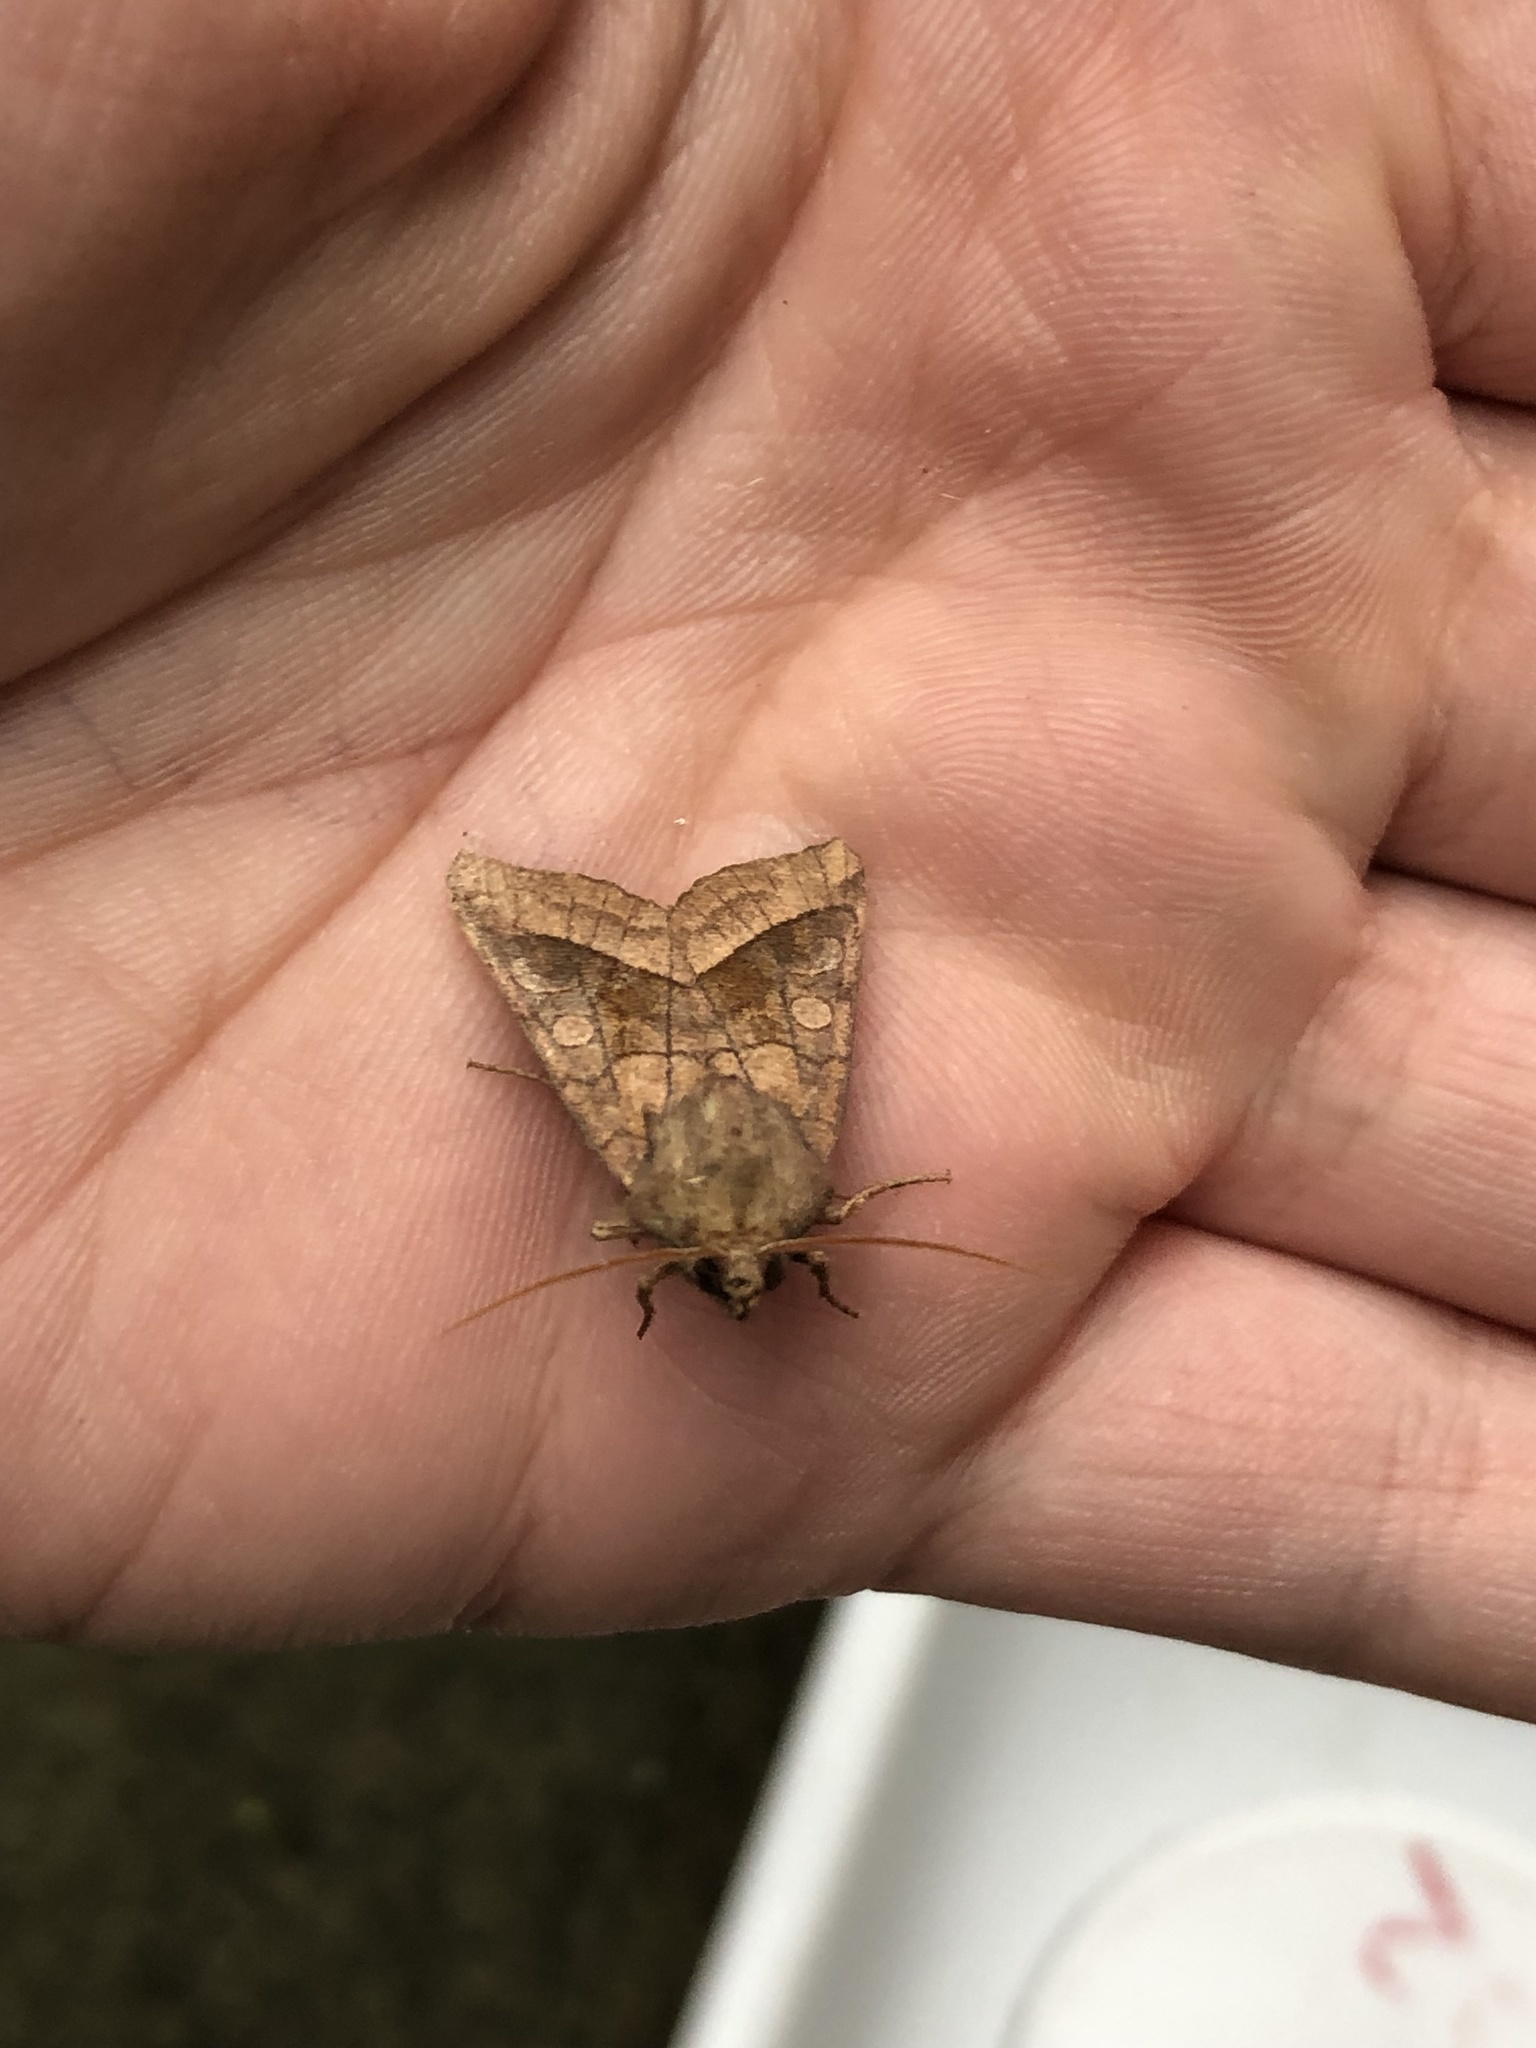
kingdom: Animalia
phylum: Arthropoda
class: Insecta
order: Lepidoptera
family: Noctuidae
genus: Hydraecia
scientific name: Hydraecia micacea
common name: Rosy rustic
